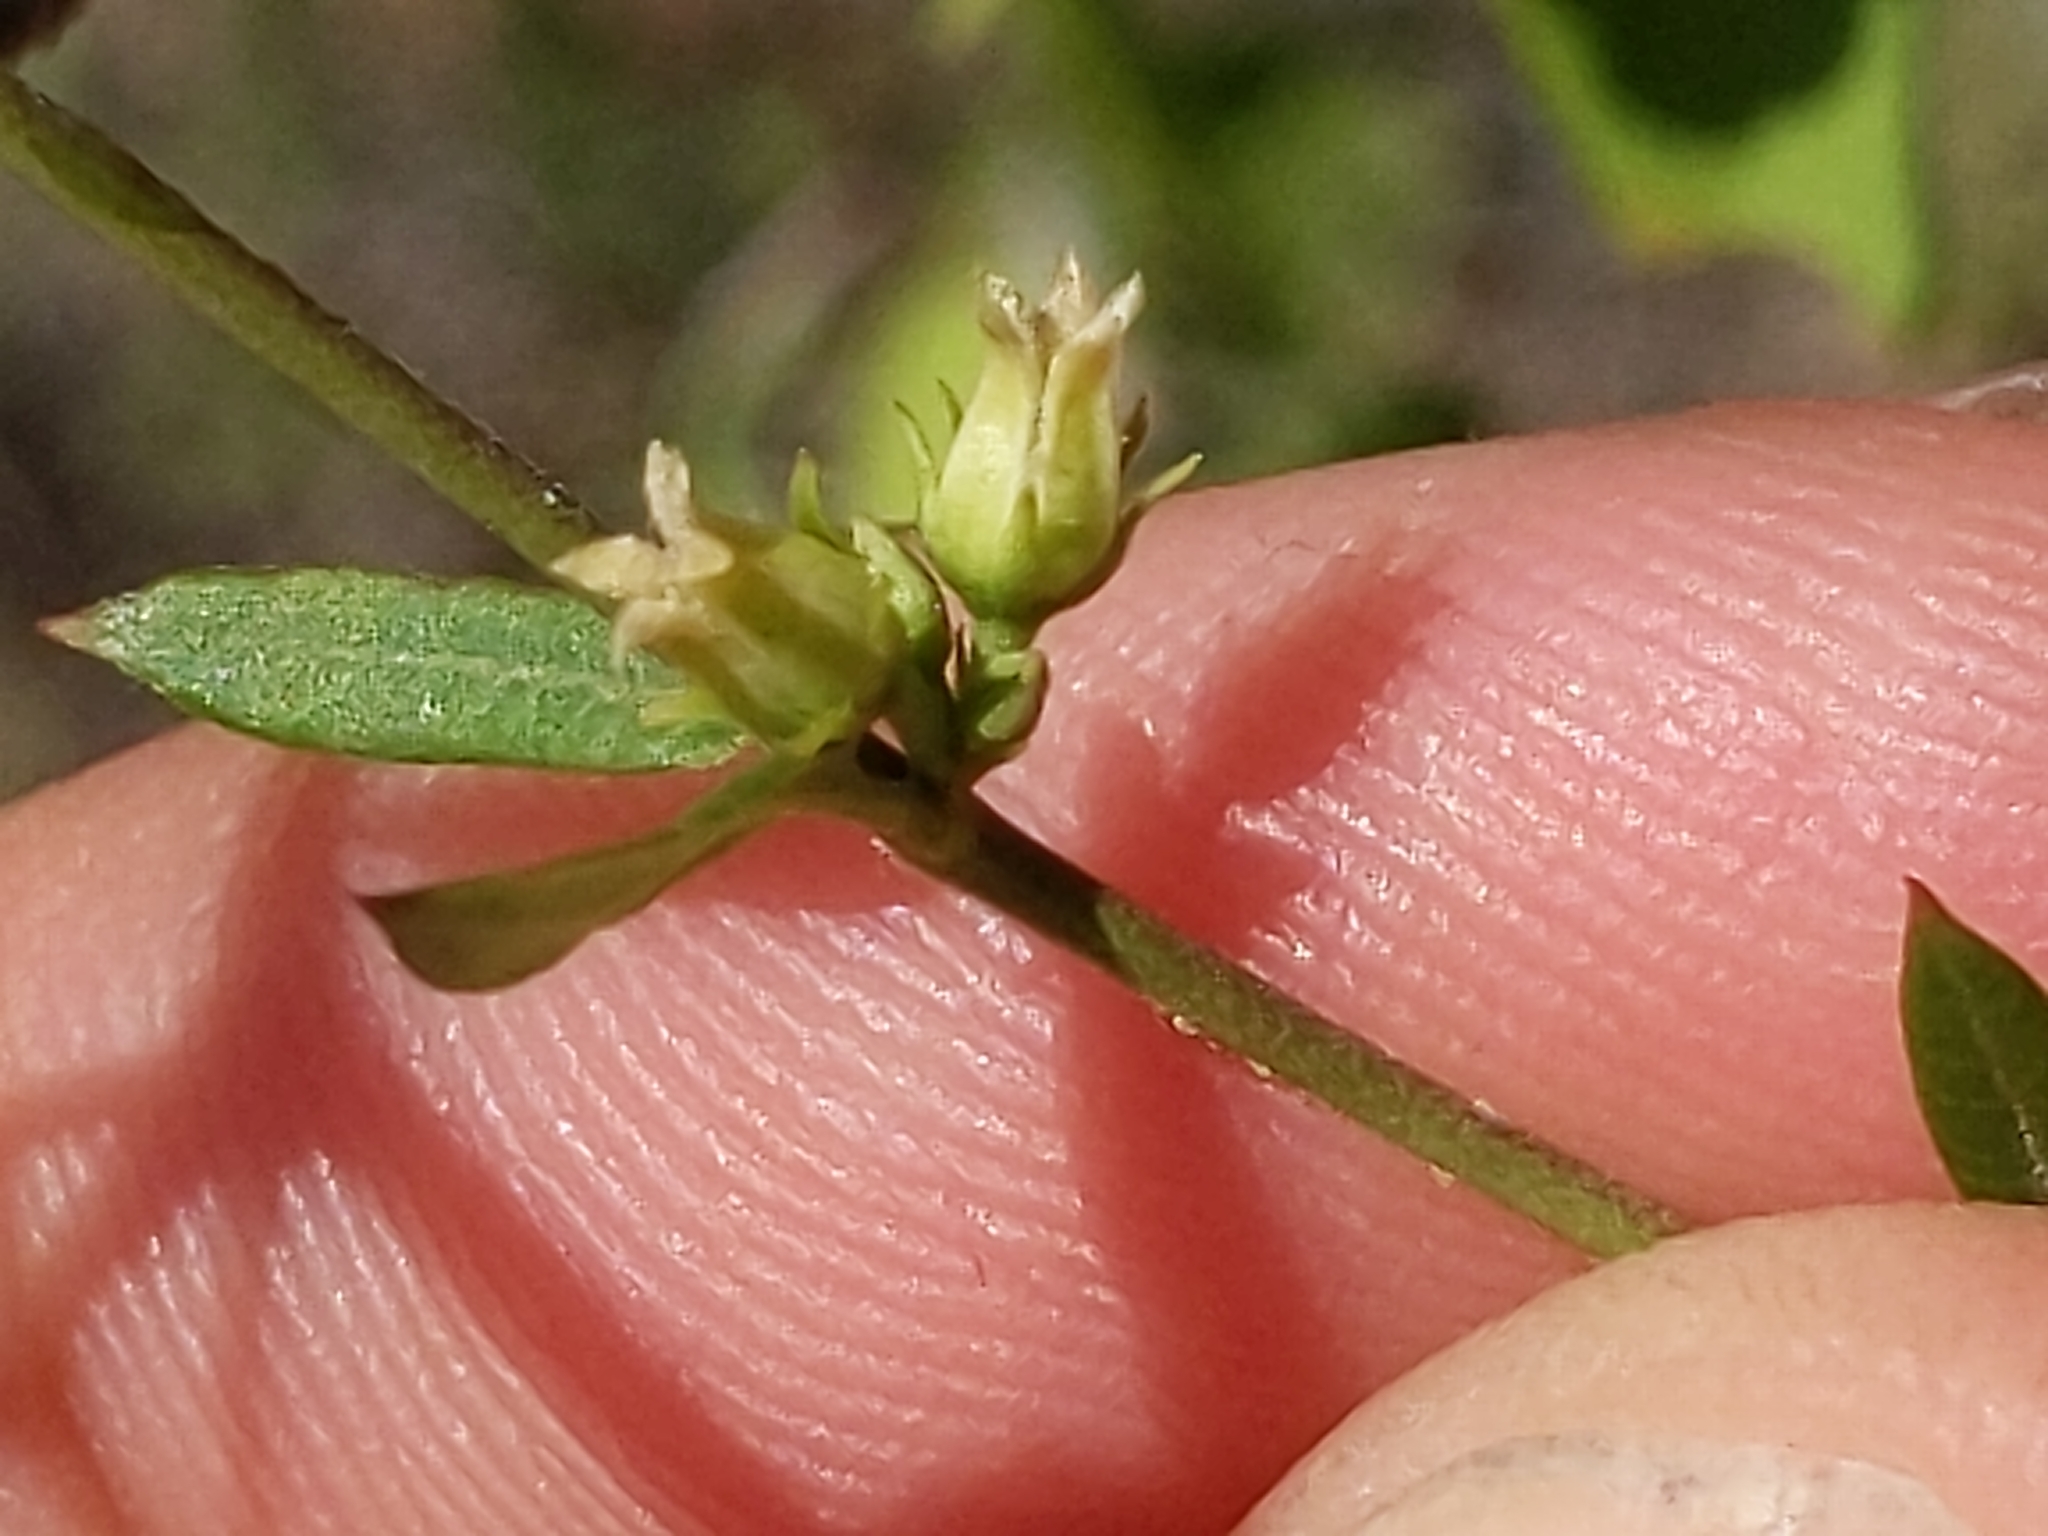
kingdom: Plantae
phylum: Tracheophyta
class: Magnoliopsida
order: Gentianales
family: Apocynaceae
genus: Metastelma
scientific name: Metastelma arizonicum
